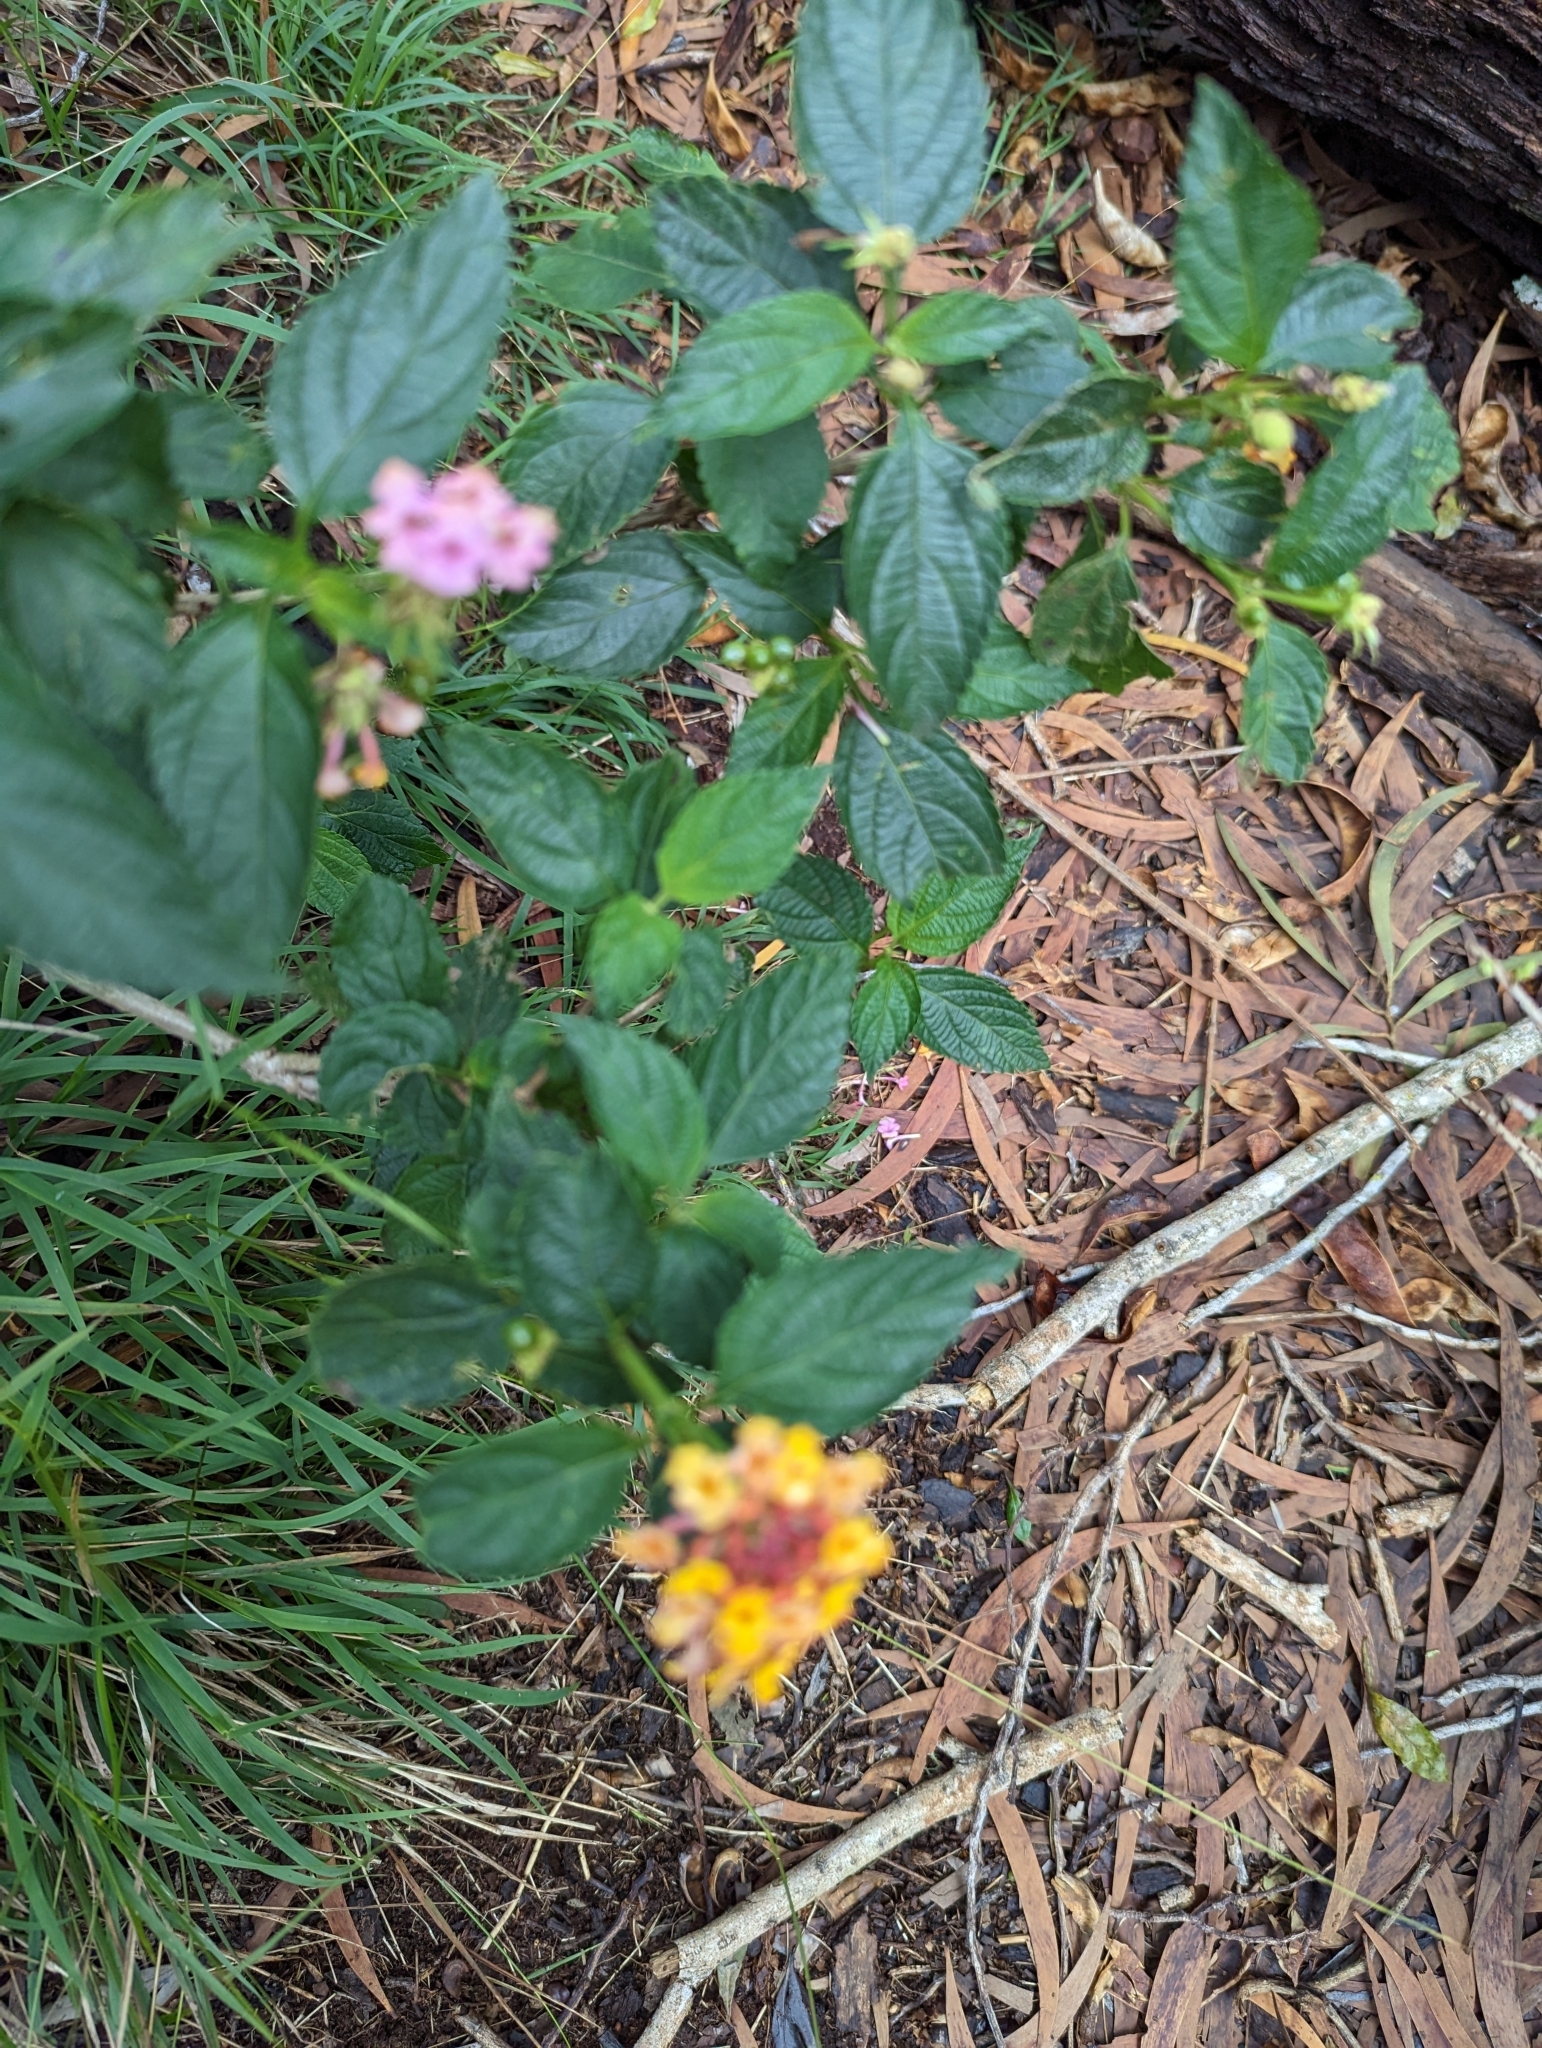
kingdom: Plantae
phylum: Tracheophyta
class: Magnoliopsida
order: Lamiales
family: Verbenaceae
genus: Lantana
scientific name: Lantana camara
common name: Lantana
